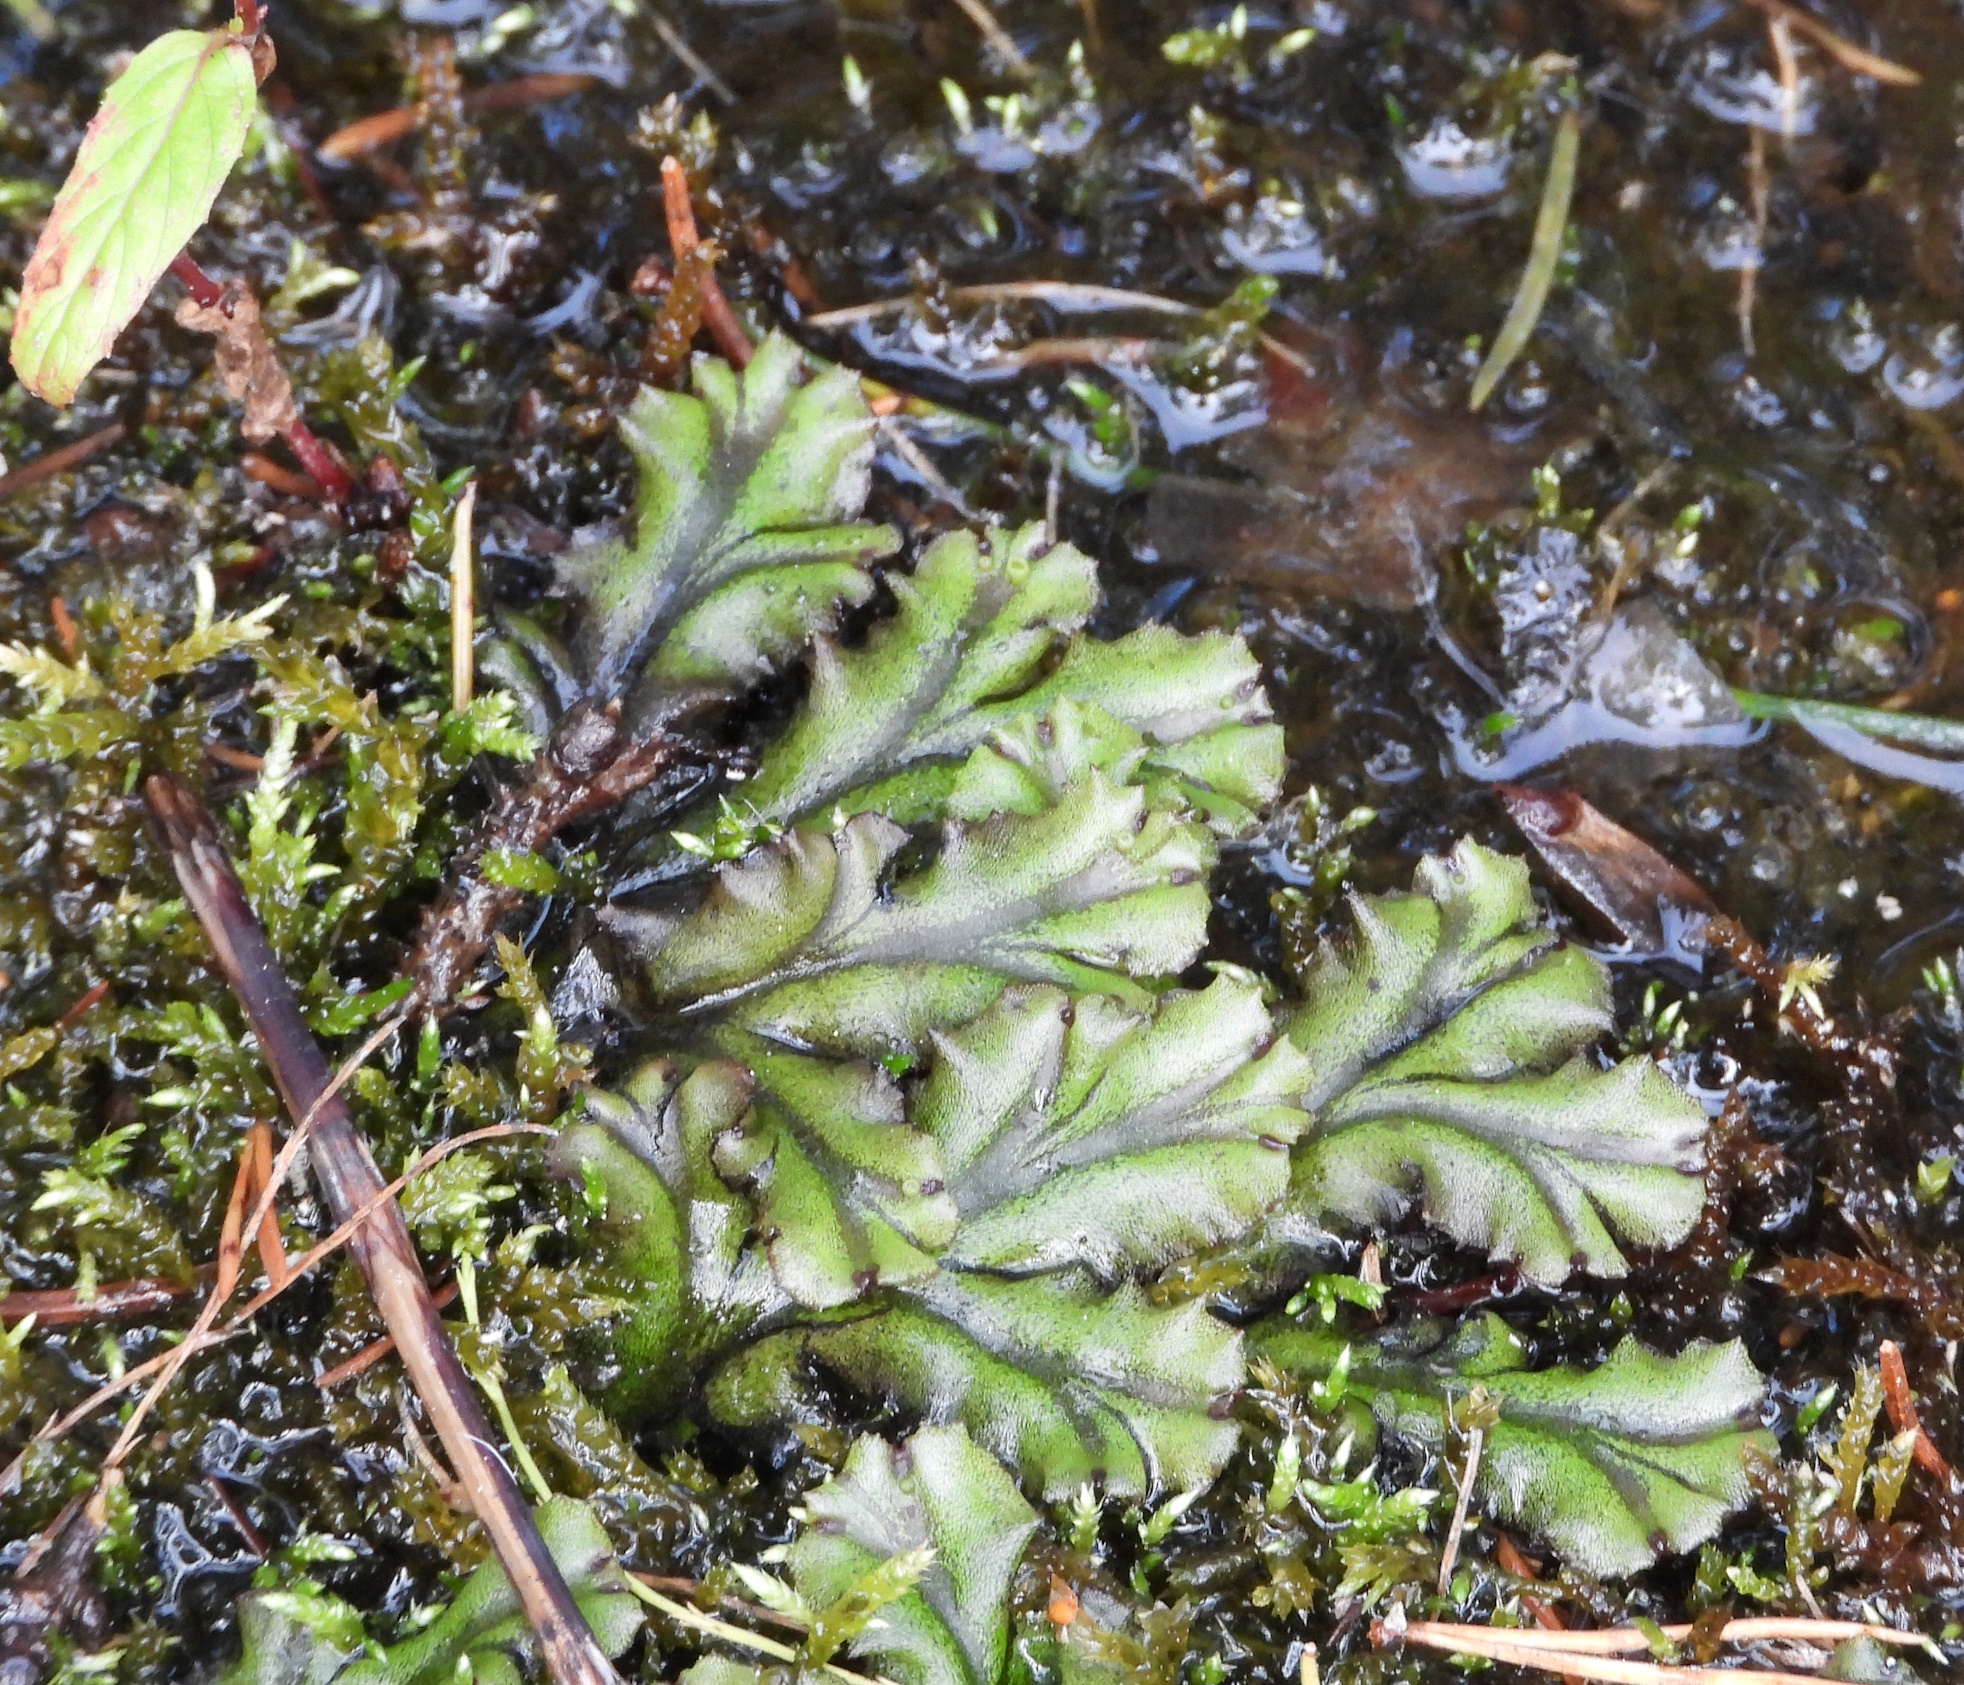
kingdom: Plantae
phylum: Marchantiophyta
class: Marchantiopsida
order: Marchantiales
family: Marchantiaceae
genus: Marchantia
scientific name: Marchantia polymorpha
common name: Common liverwort
